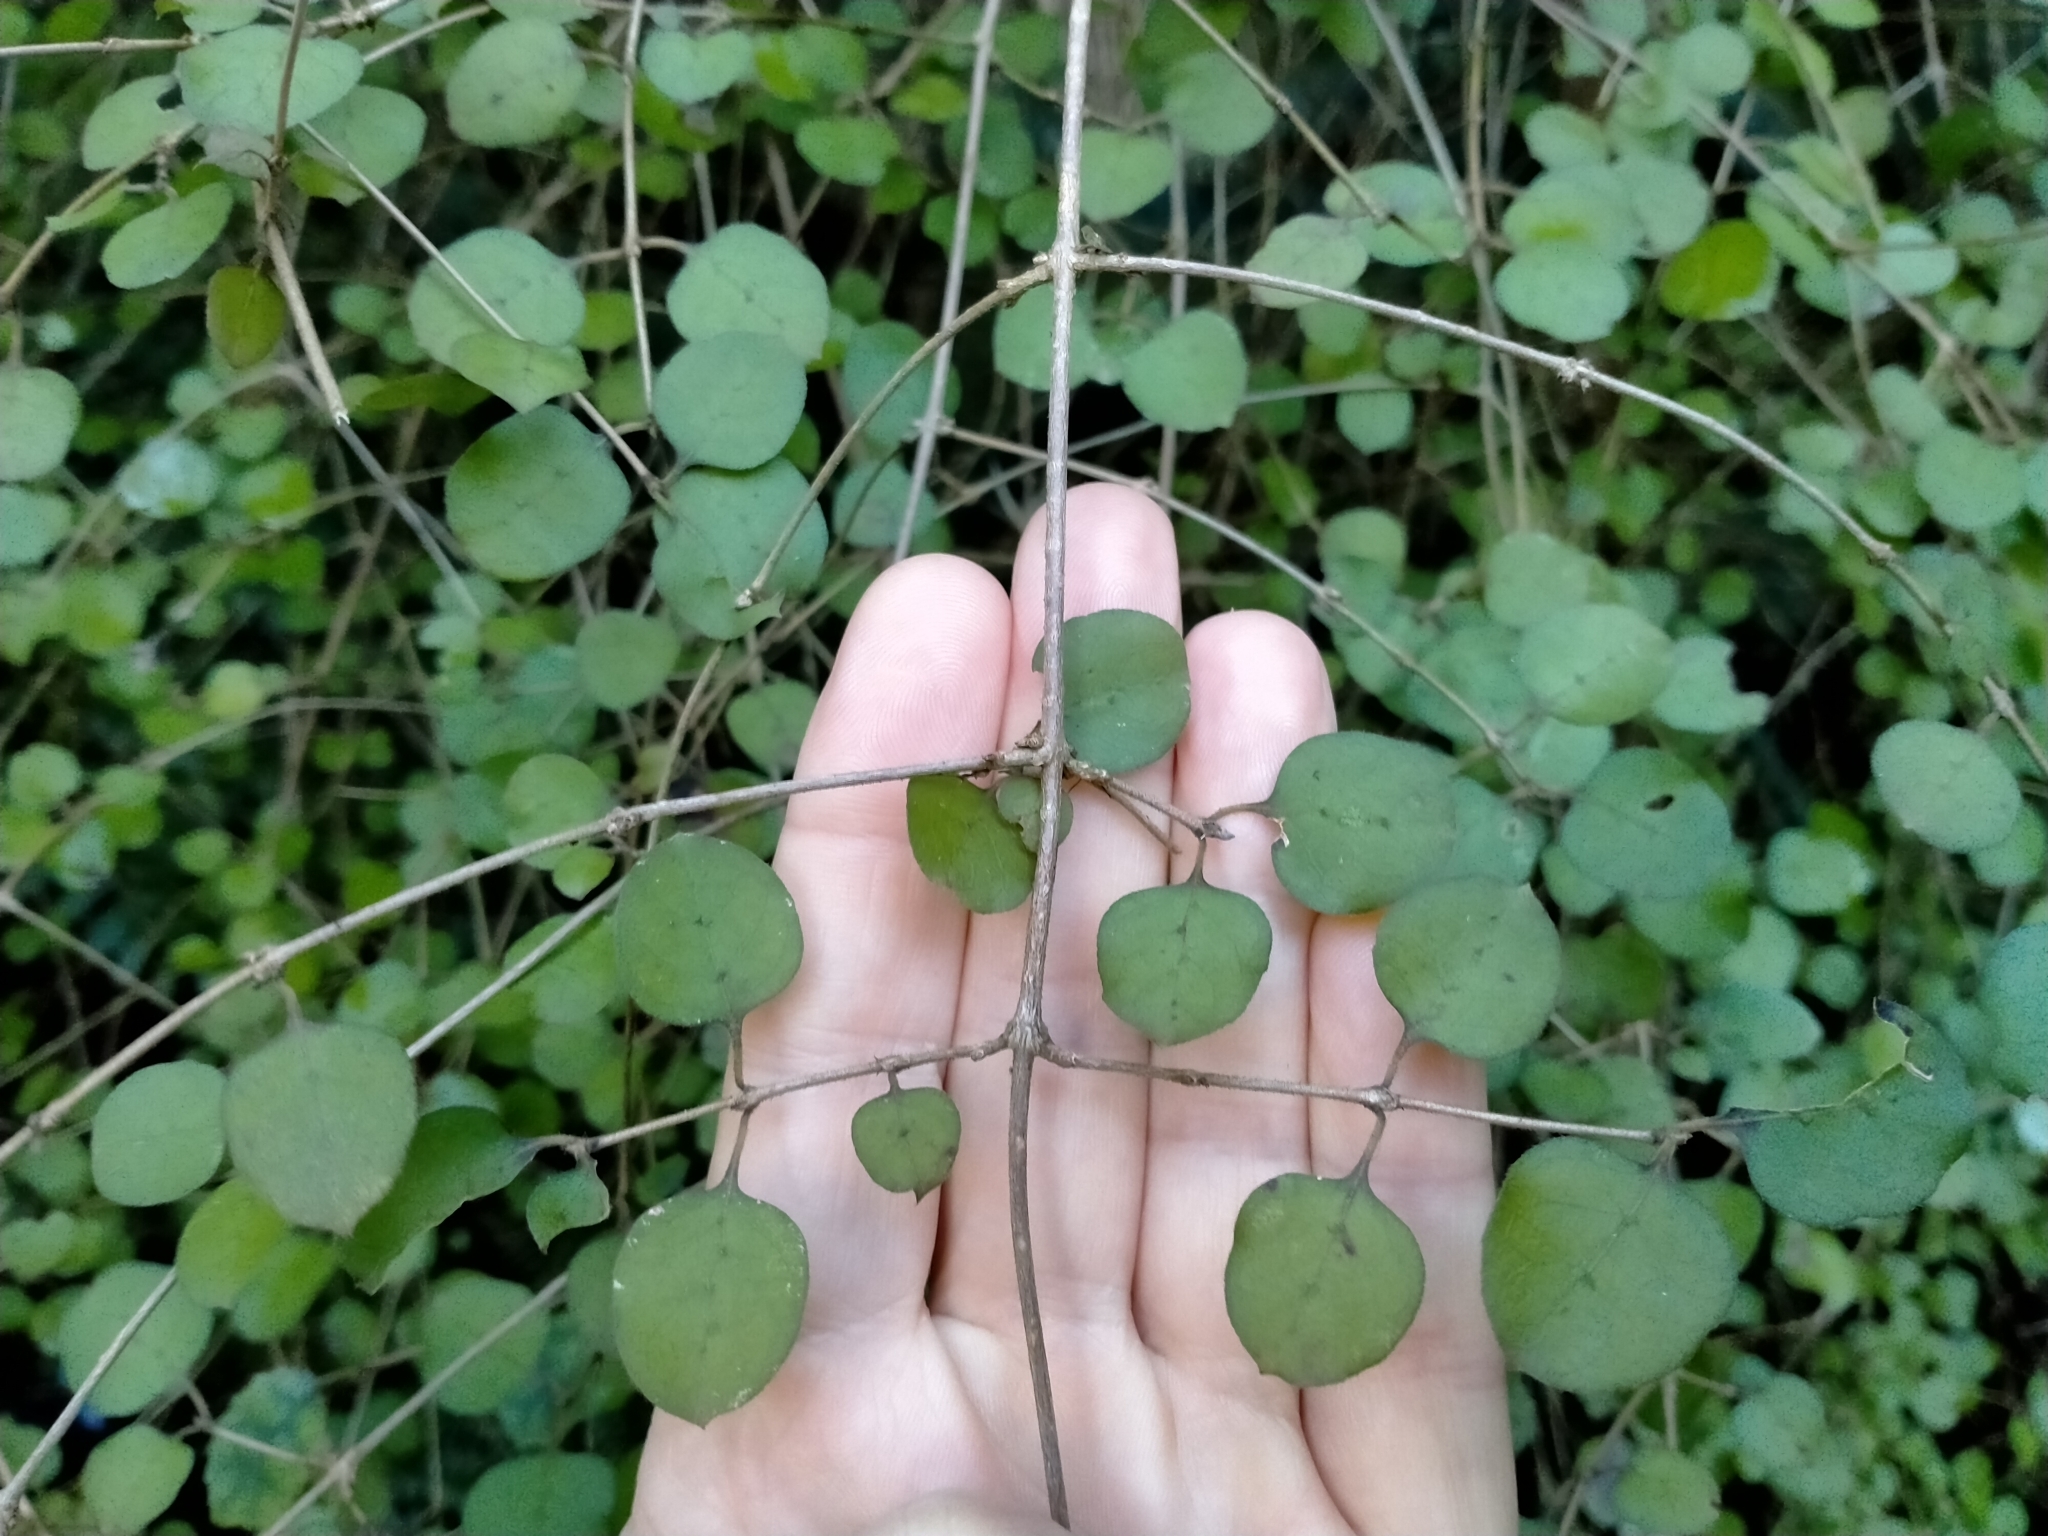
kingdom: Plantae
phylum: Tracheophyta
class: Magnoliopsida
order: Gentianales
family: Rubiaceae
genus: Coprosma
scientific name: Coprosma rotundifolia
